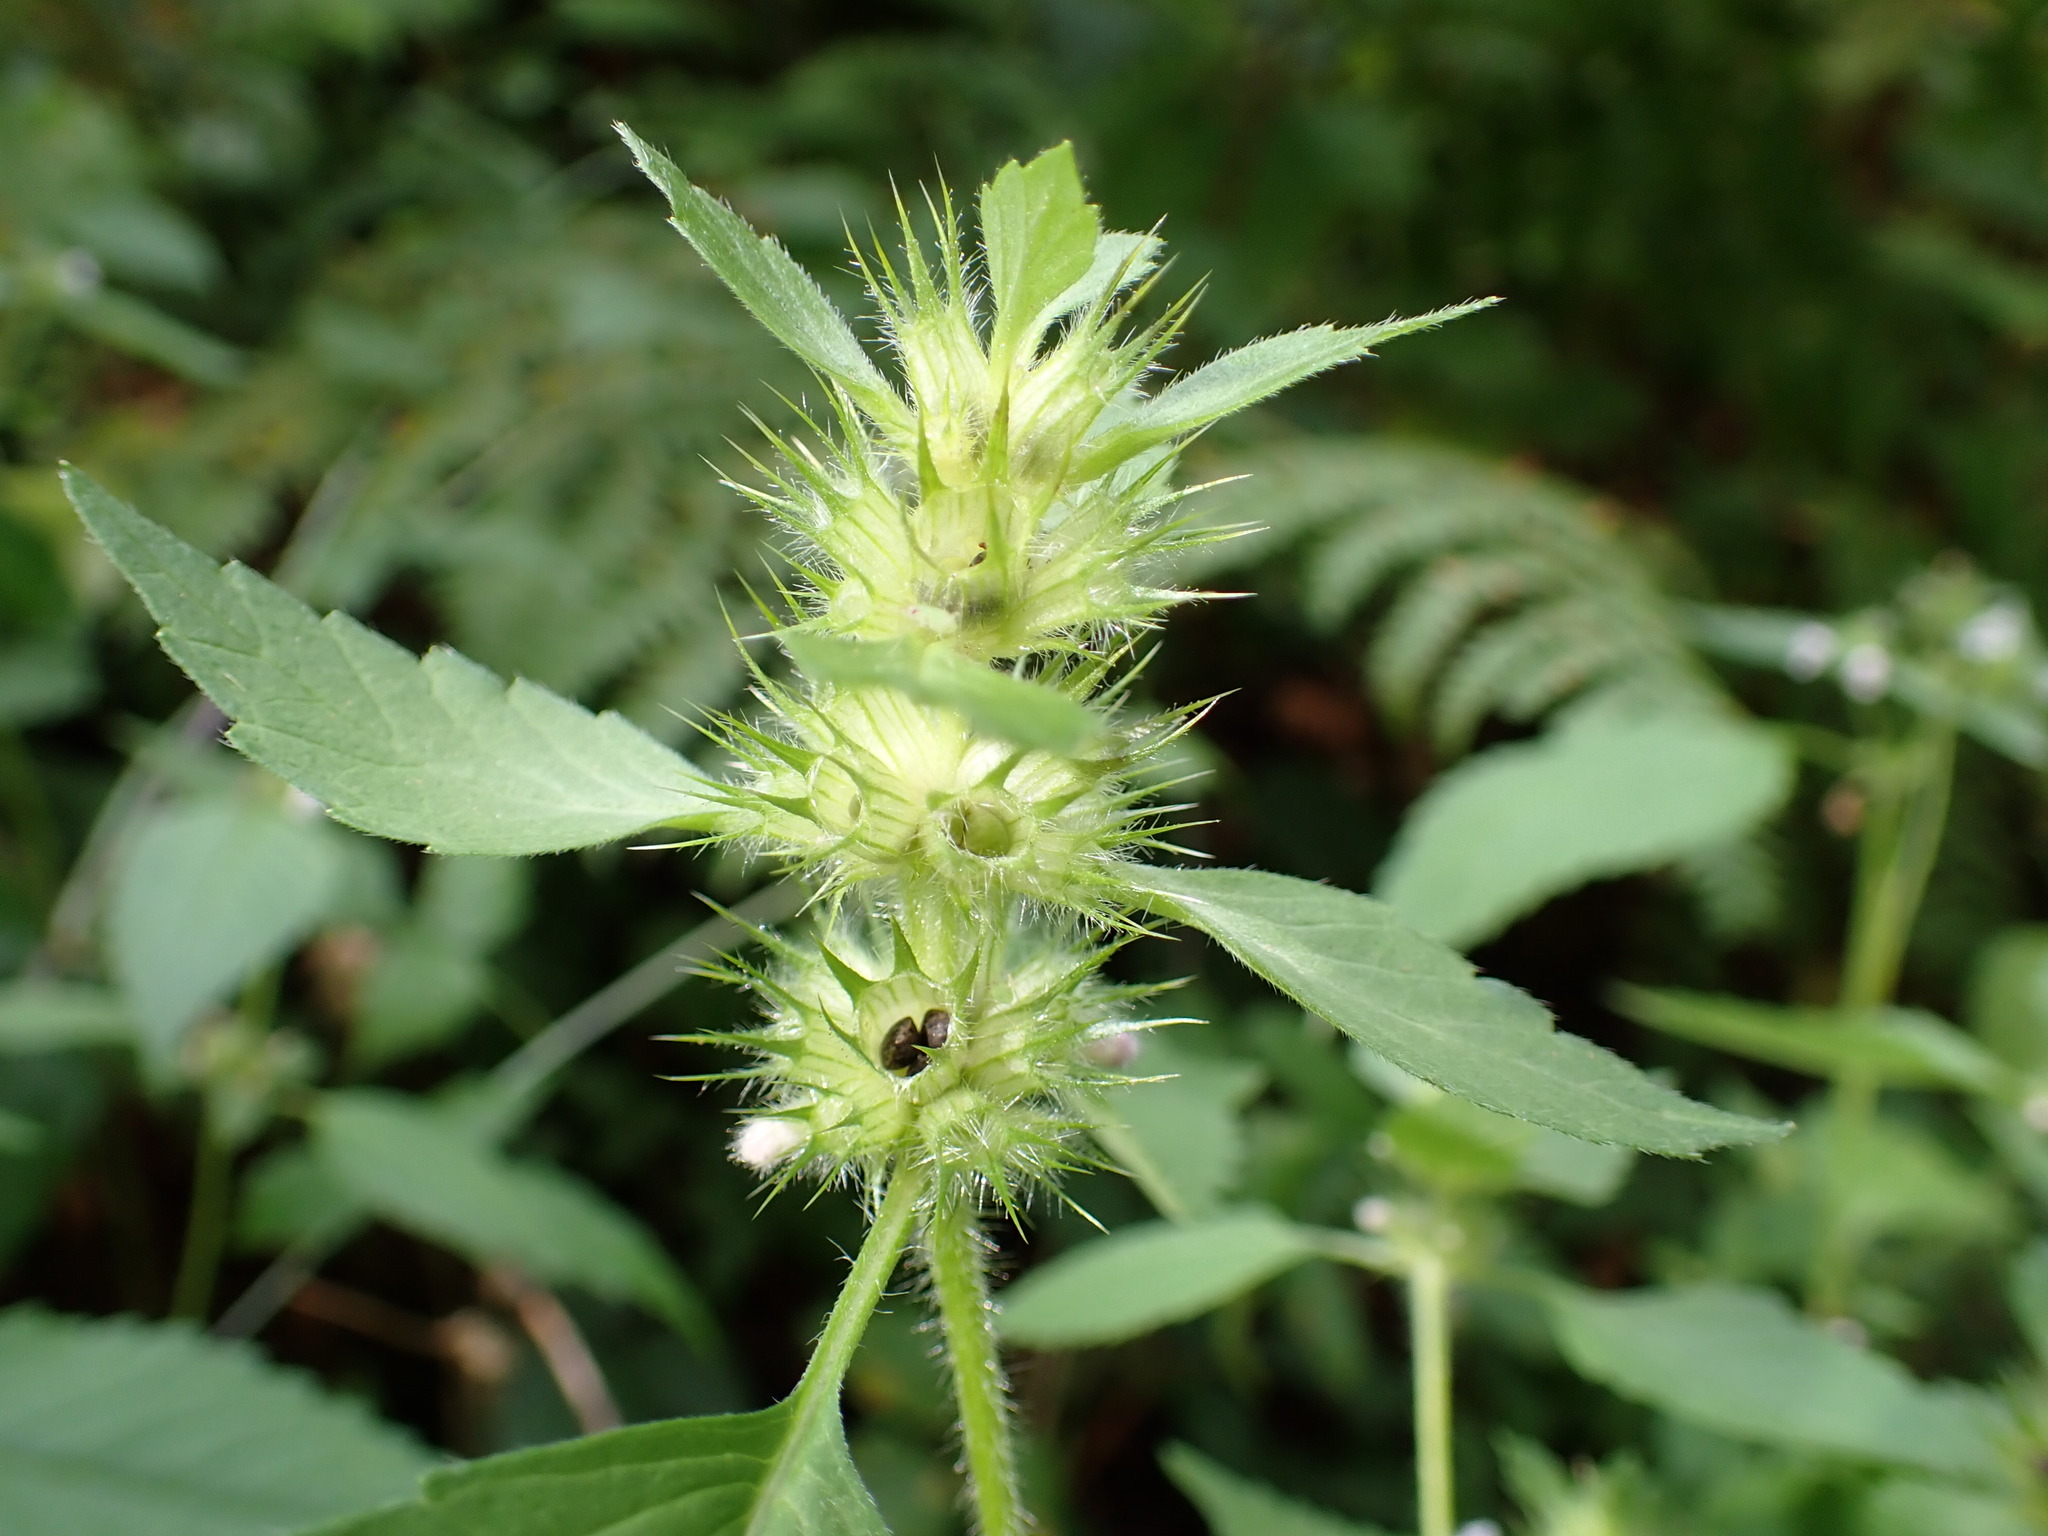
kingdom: Plantae
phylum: Tracheophyta
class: Magnoliopsida
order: Lamiales
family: Lamiaceae
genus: Galeopsis
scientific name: Galeopsis tetrahit
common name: Common hemp-nettle
